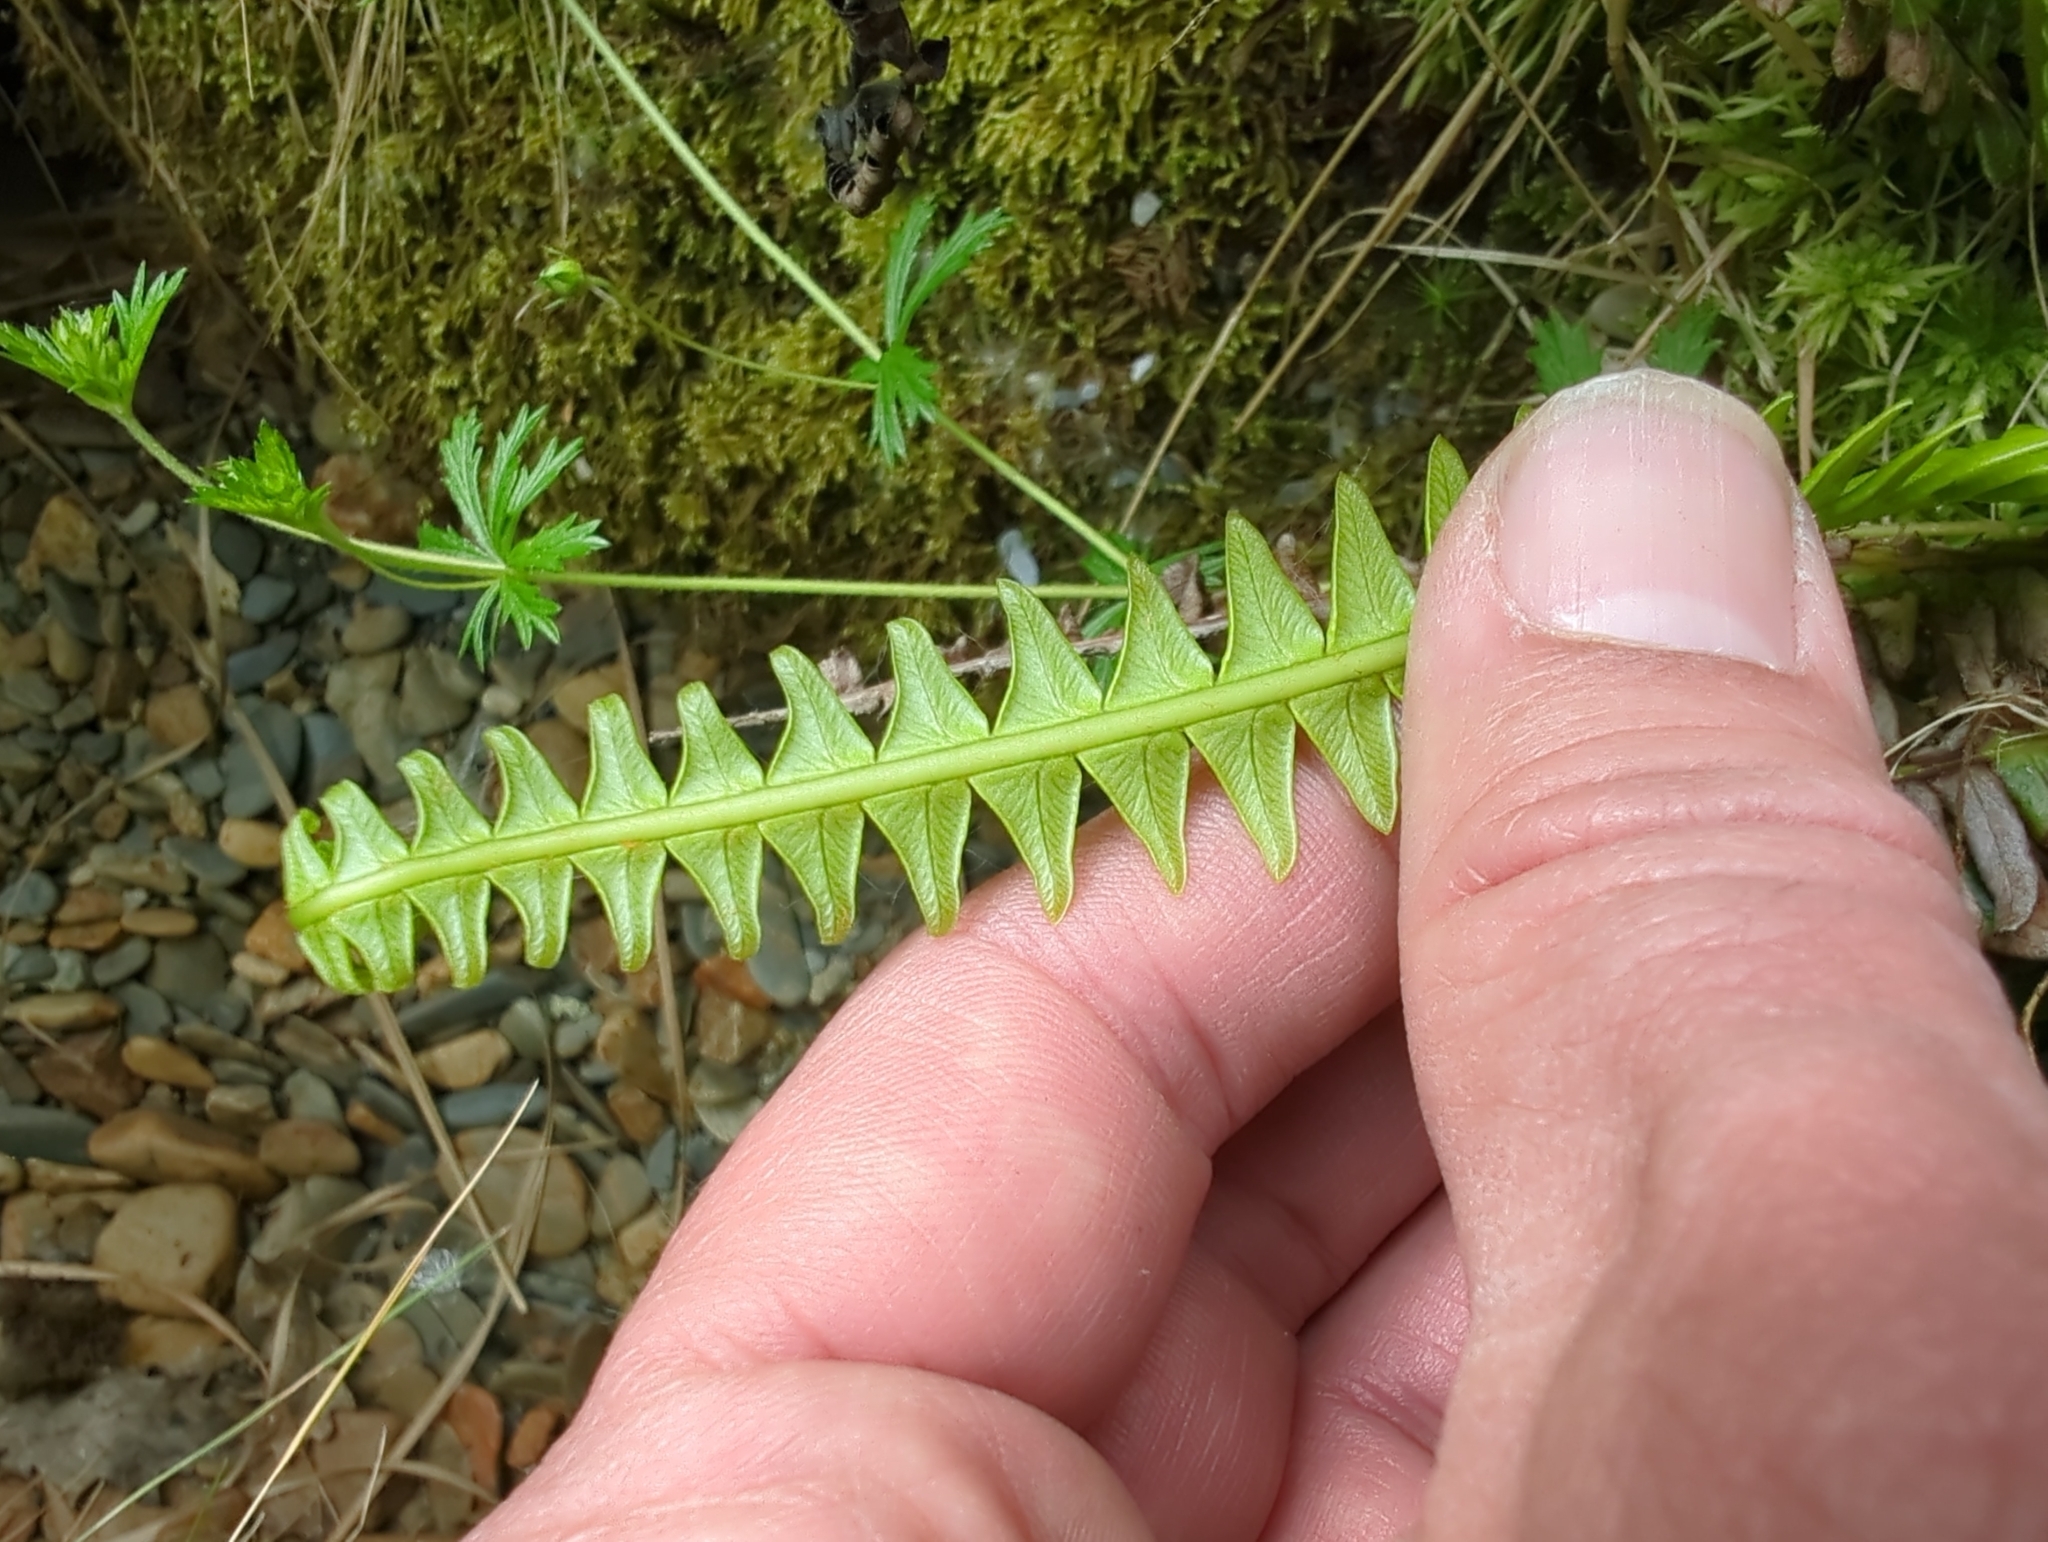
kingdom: Plantae
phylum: Tracheophyta
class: Polypodiopsida
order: Polypodiales
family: Blechnaceae
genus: Struthiopteris
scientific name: Struthiopteris spicant
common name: Deer fern
